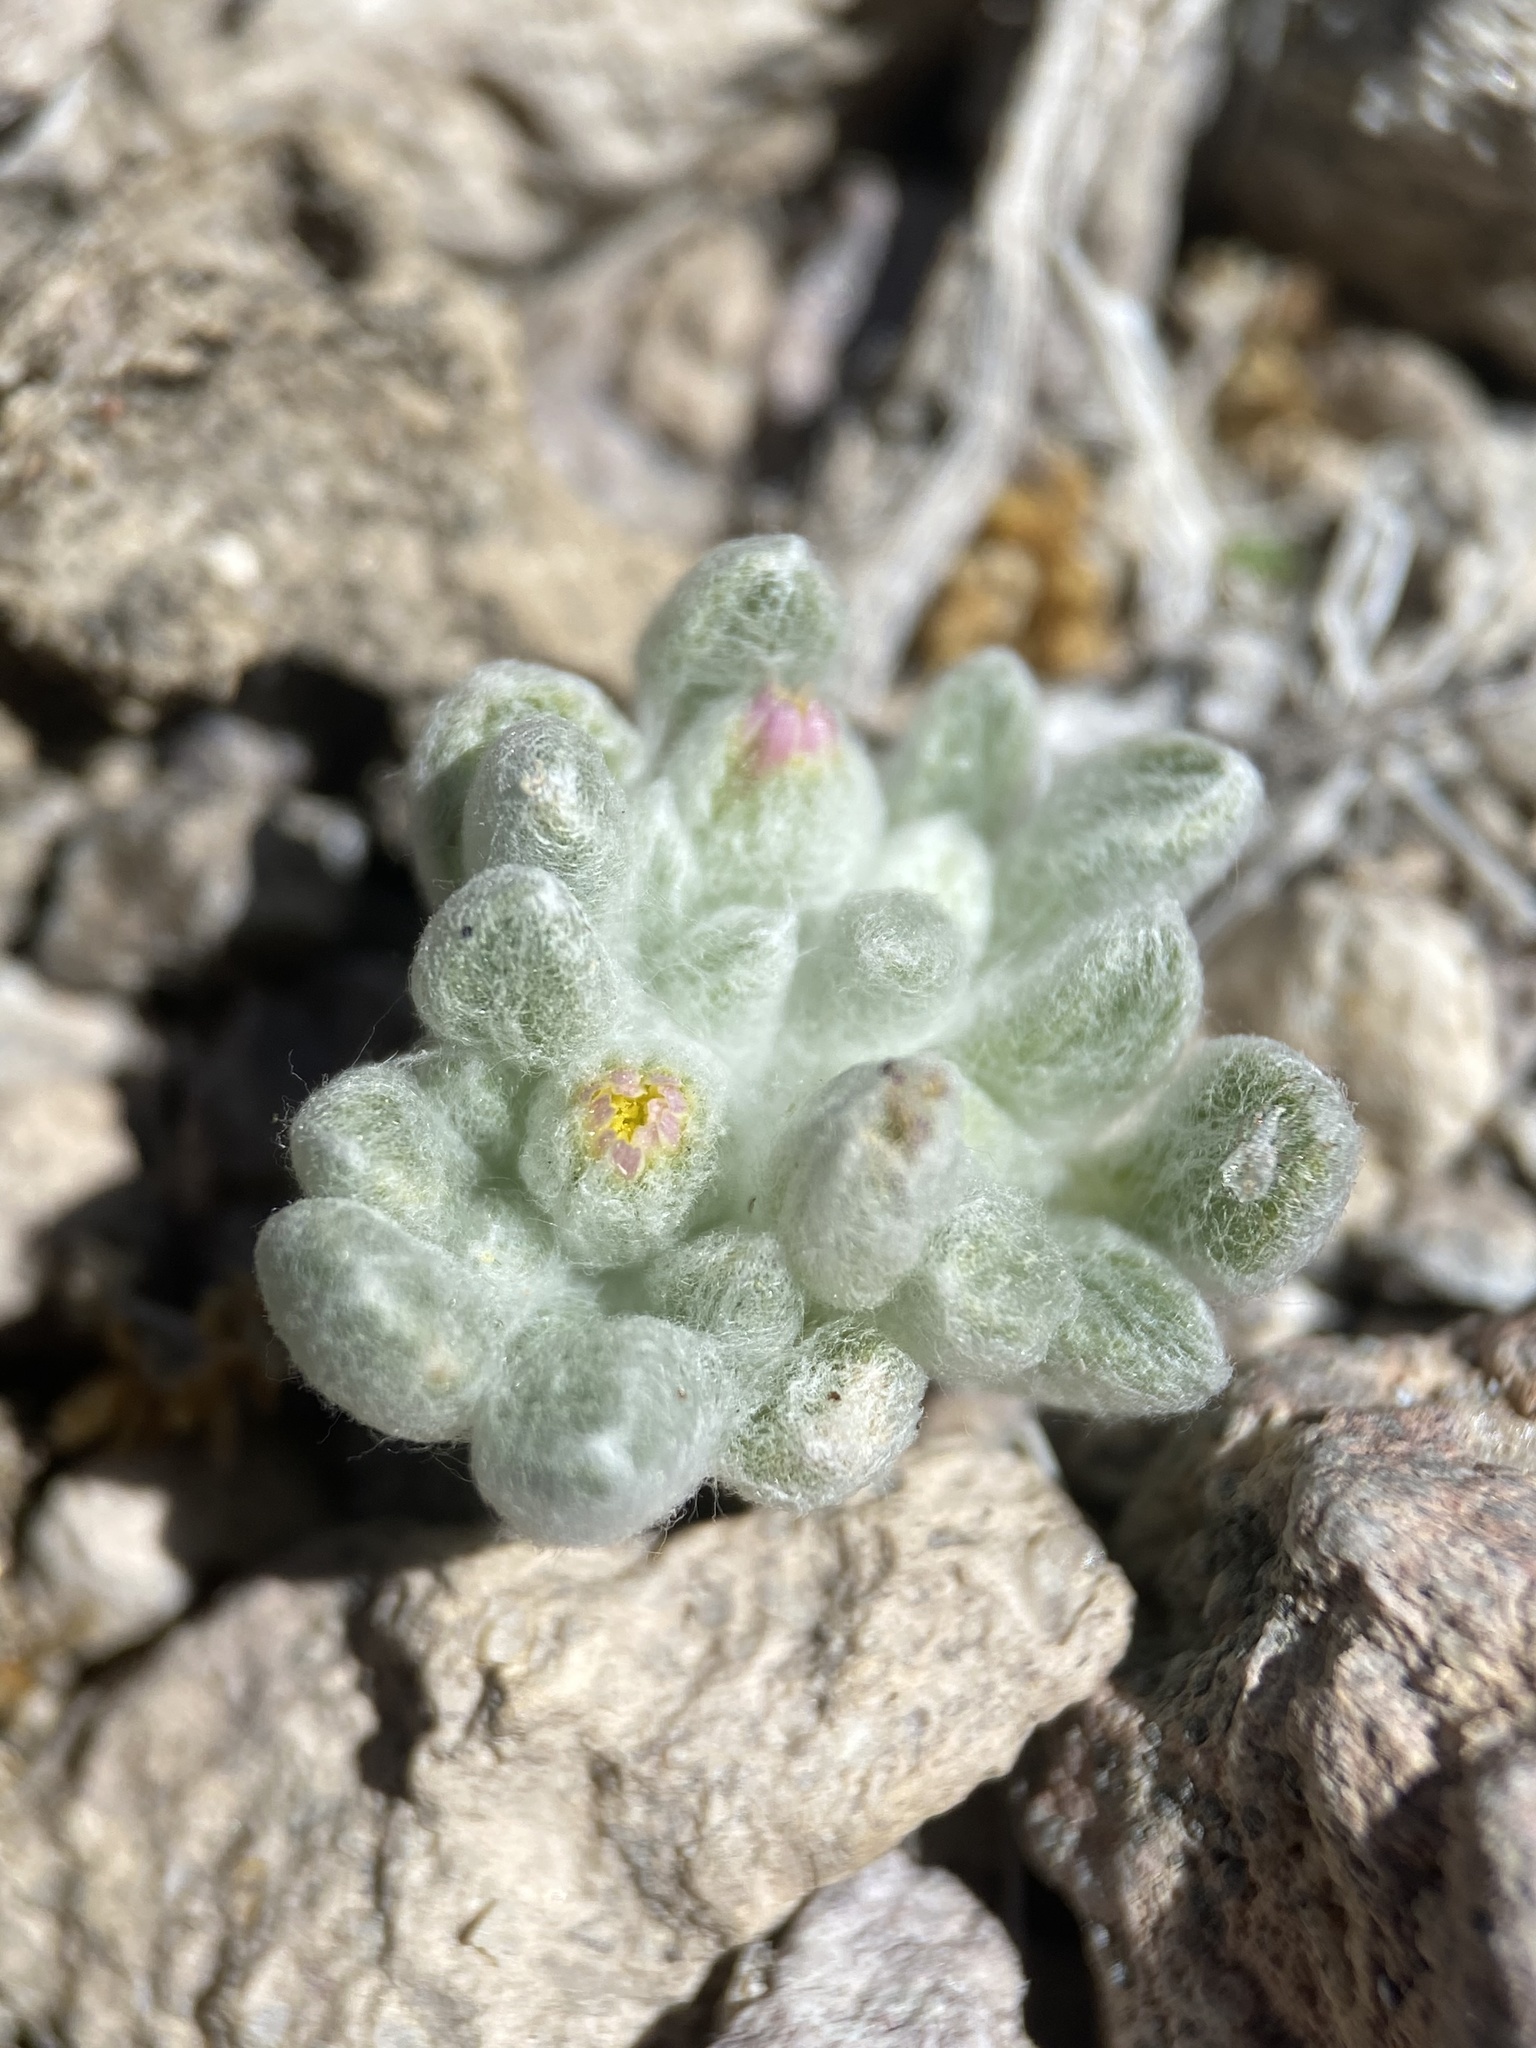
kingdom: Plantae
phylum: Tracheophyta
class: Magnoliopsida
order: Asterales
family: Asteraceae
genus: Eatonella
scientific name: Eatonella nivea
